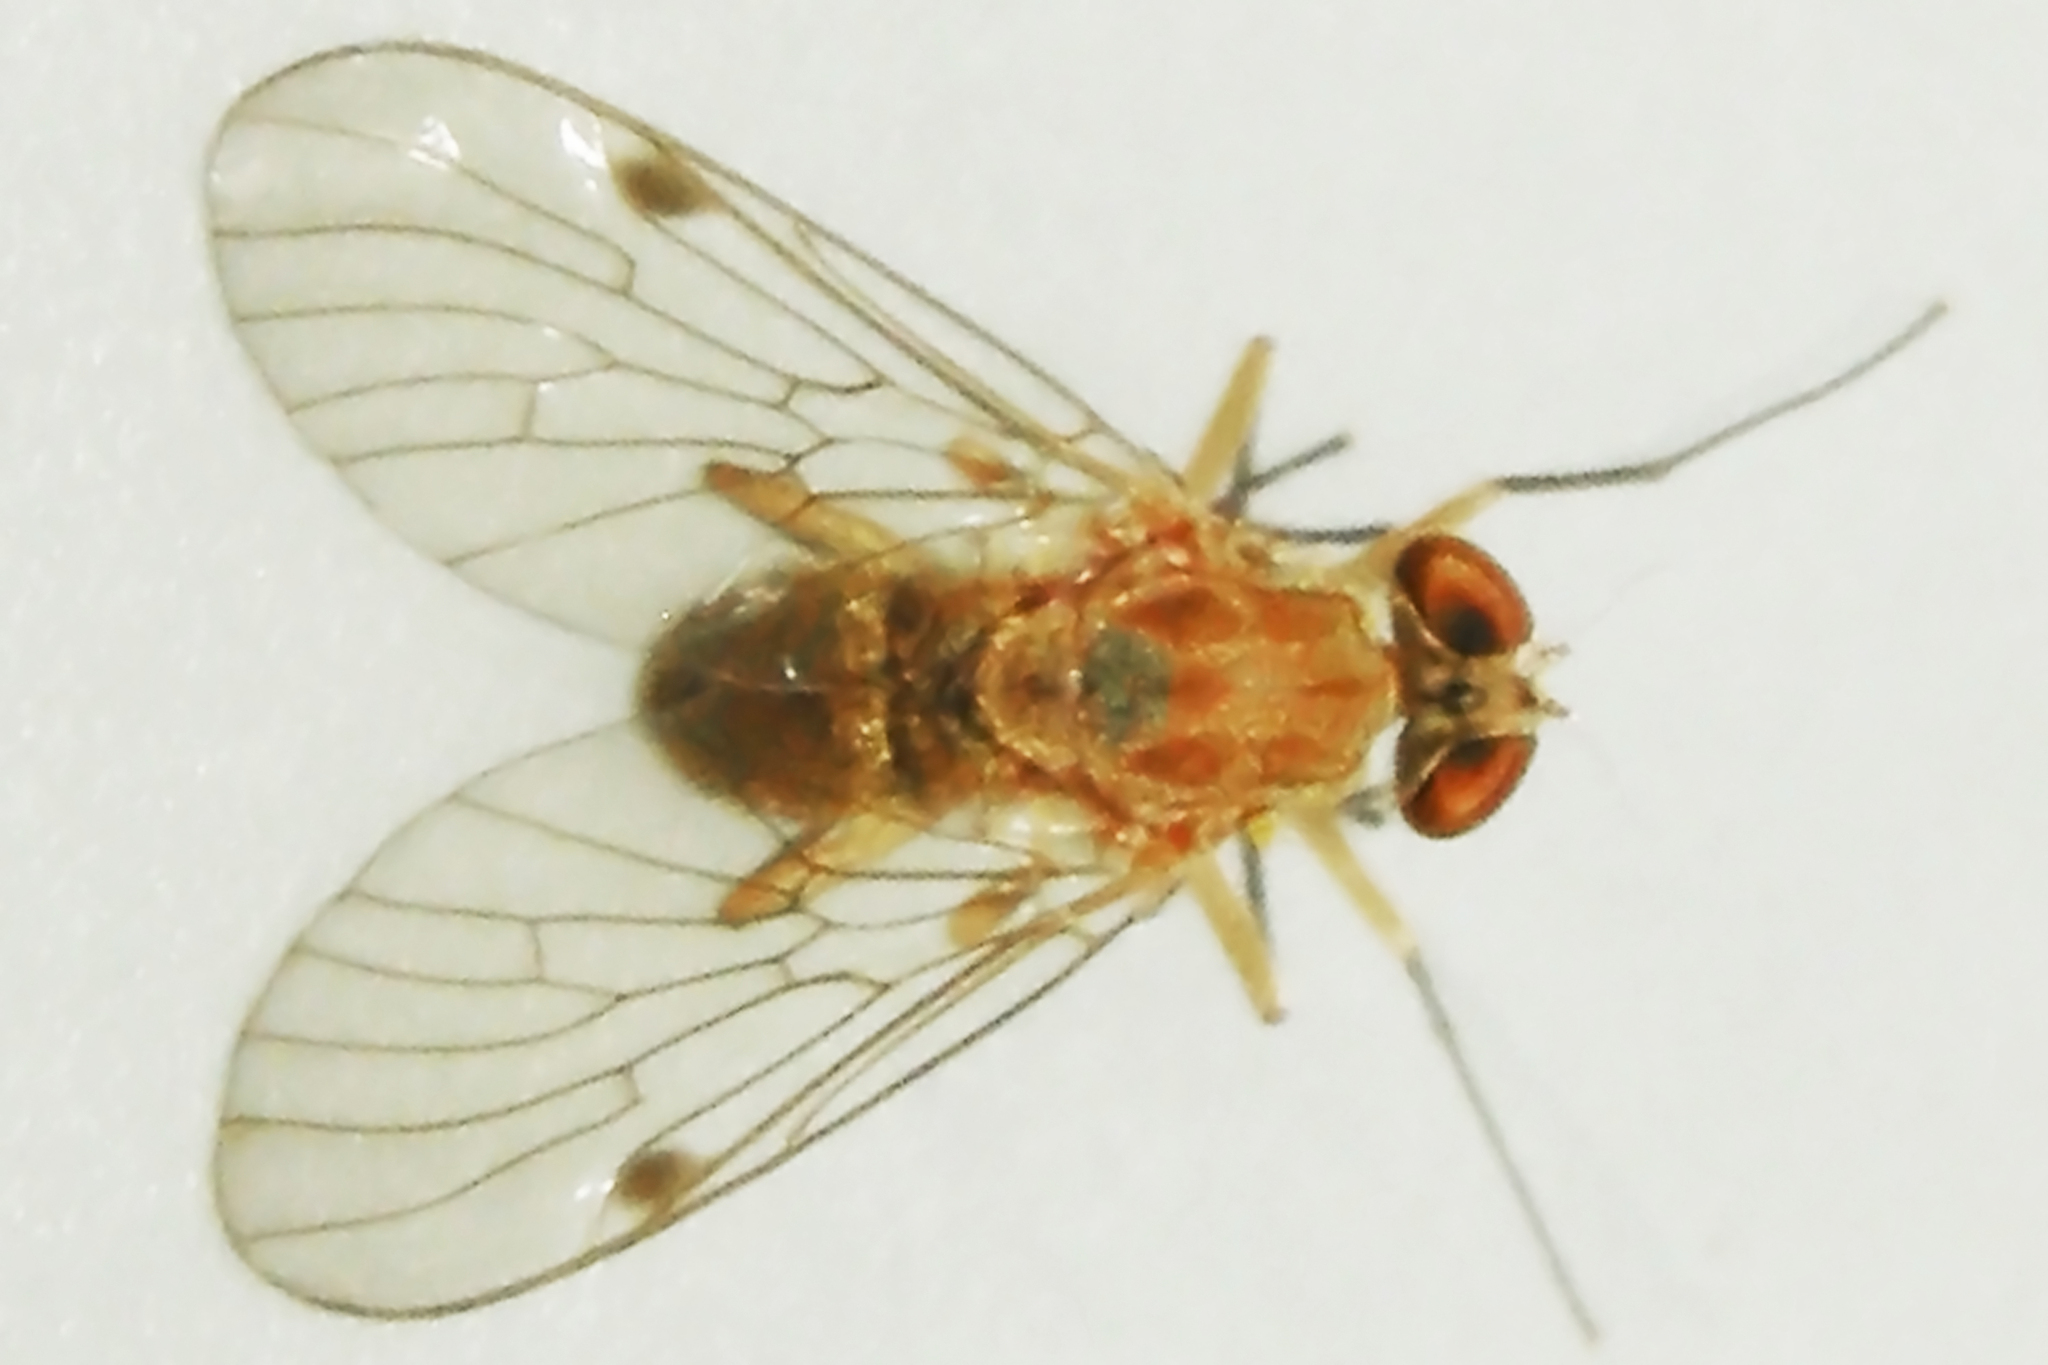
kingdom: Animalia
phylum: Arthropoda
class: Insecta
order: Diptera
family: Rhagionidae
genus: Chrysopilus
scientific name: Chrysopilus rotundipennis
